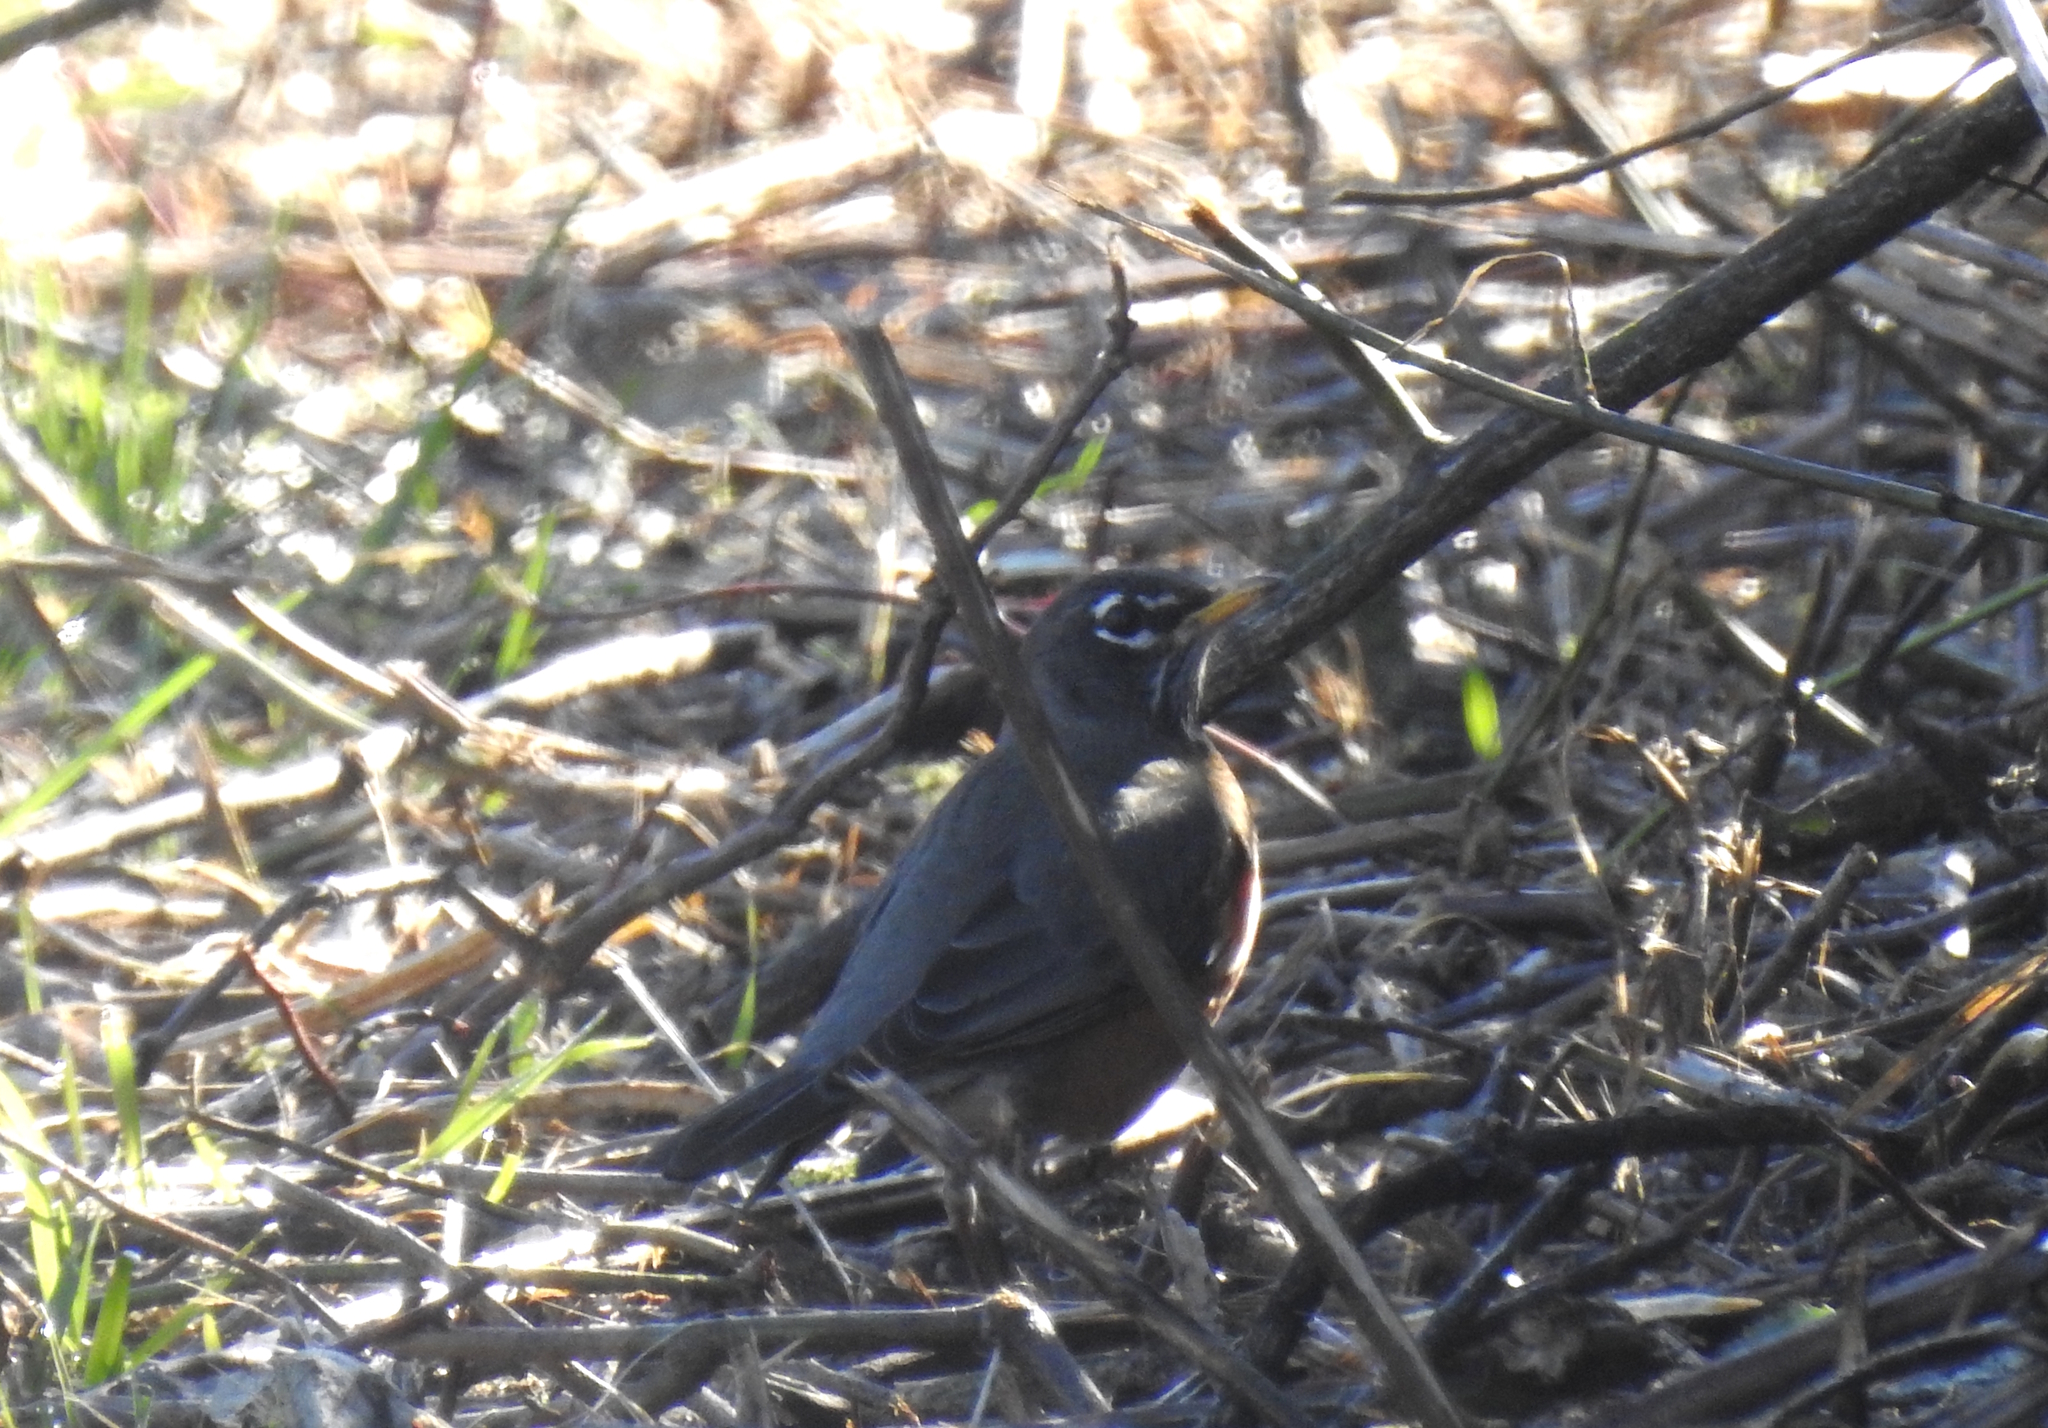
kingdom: Animalia
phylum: Chordata
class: Aves
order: Passeriformes
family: Turdidae
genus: Turdus
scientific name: Turdus migratorius
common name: American robin
